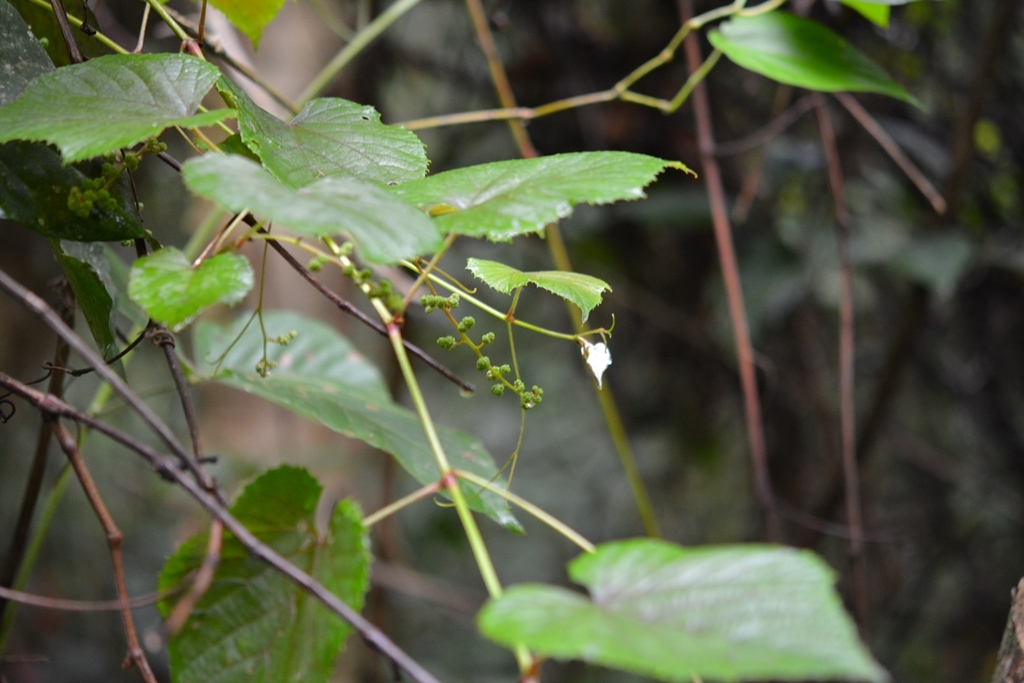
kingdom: Plantae
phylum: Tracheophyta
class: Magnoliopsida
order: Vitales
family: Vitaceae
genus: Vitis
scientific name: Vitis tiliifolia
